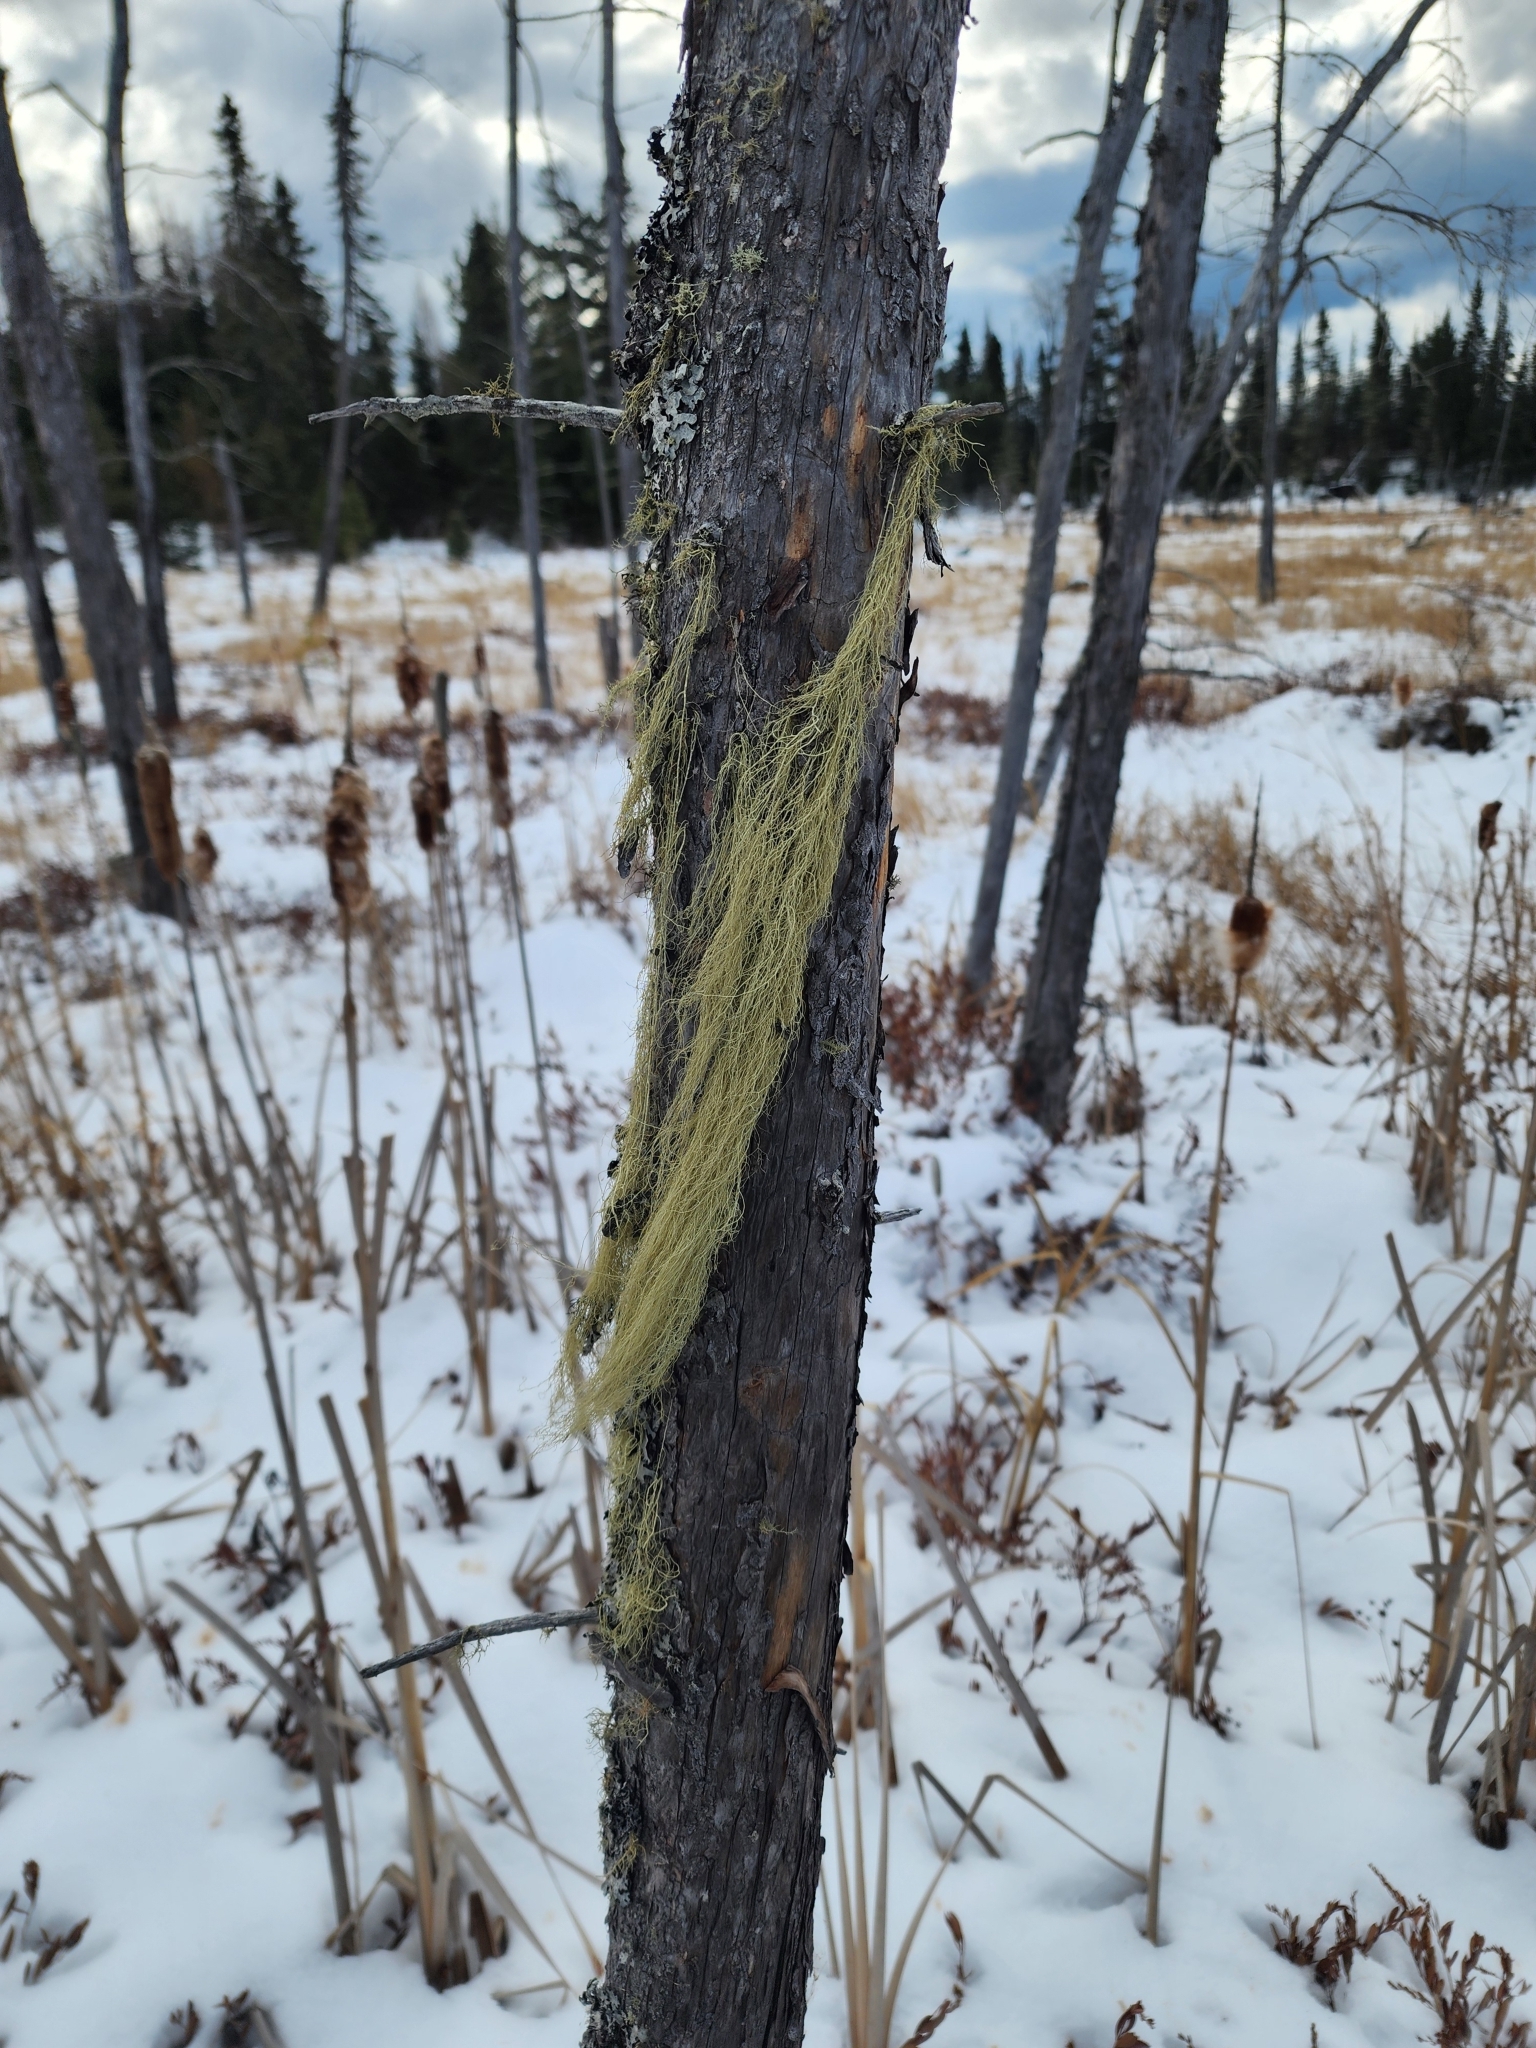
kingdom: Fungi
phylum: Ascomycota
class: Lecanoromycetes
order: Lecanorales
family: Parmeliaceae
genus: Usnea
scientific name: Usnea cavernosa
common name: Pitted beard lichen
